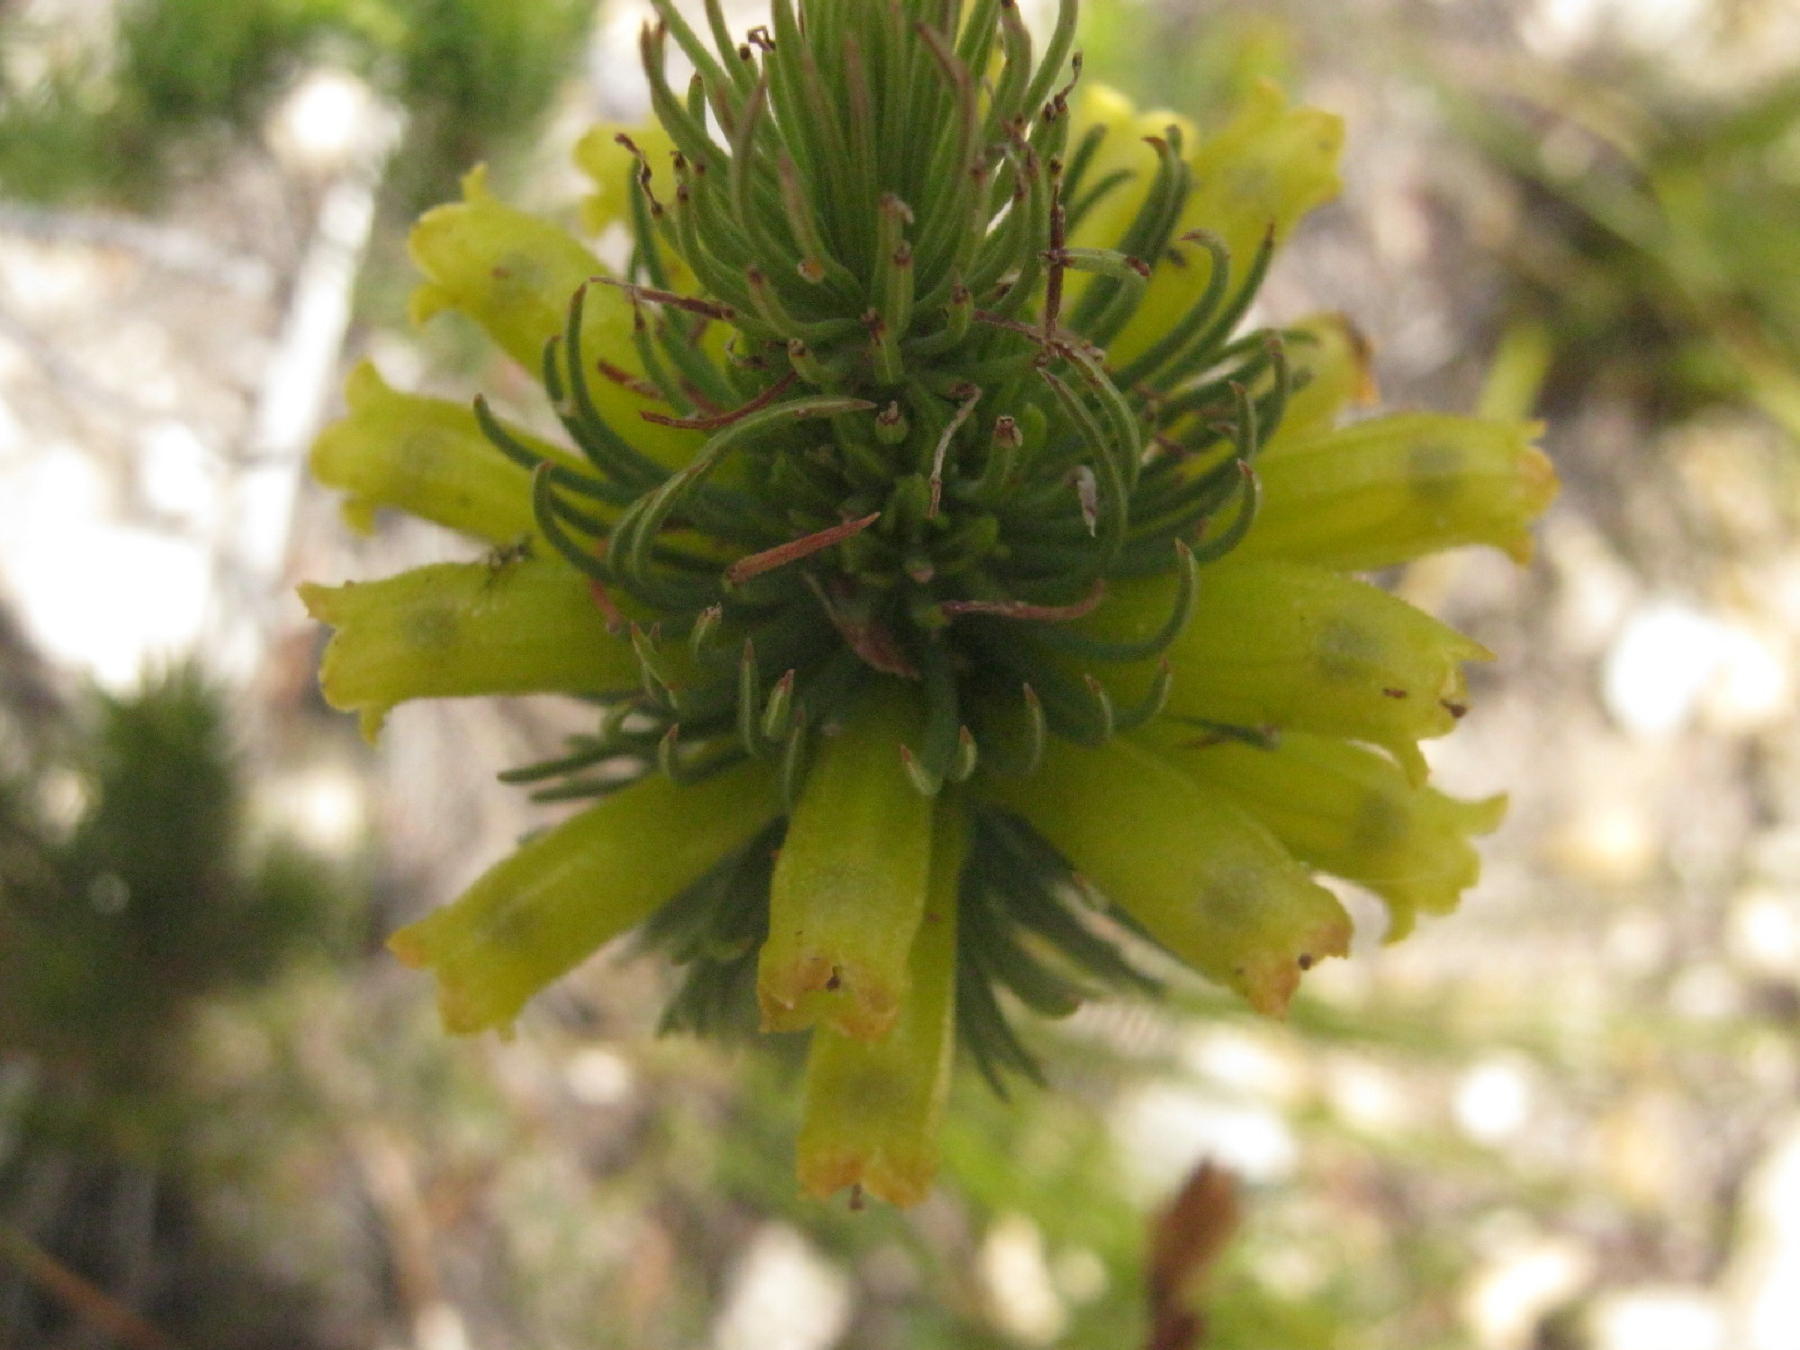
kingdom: Plantae
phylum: Tracheophyta
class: Magnoliopsida
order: Ericales
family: Ericaceae
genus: Erica
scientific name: Erica viscaria
